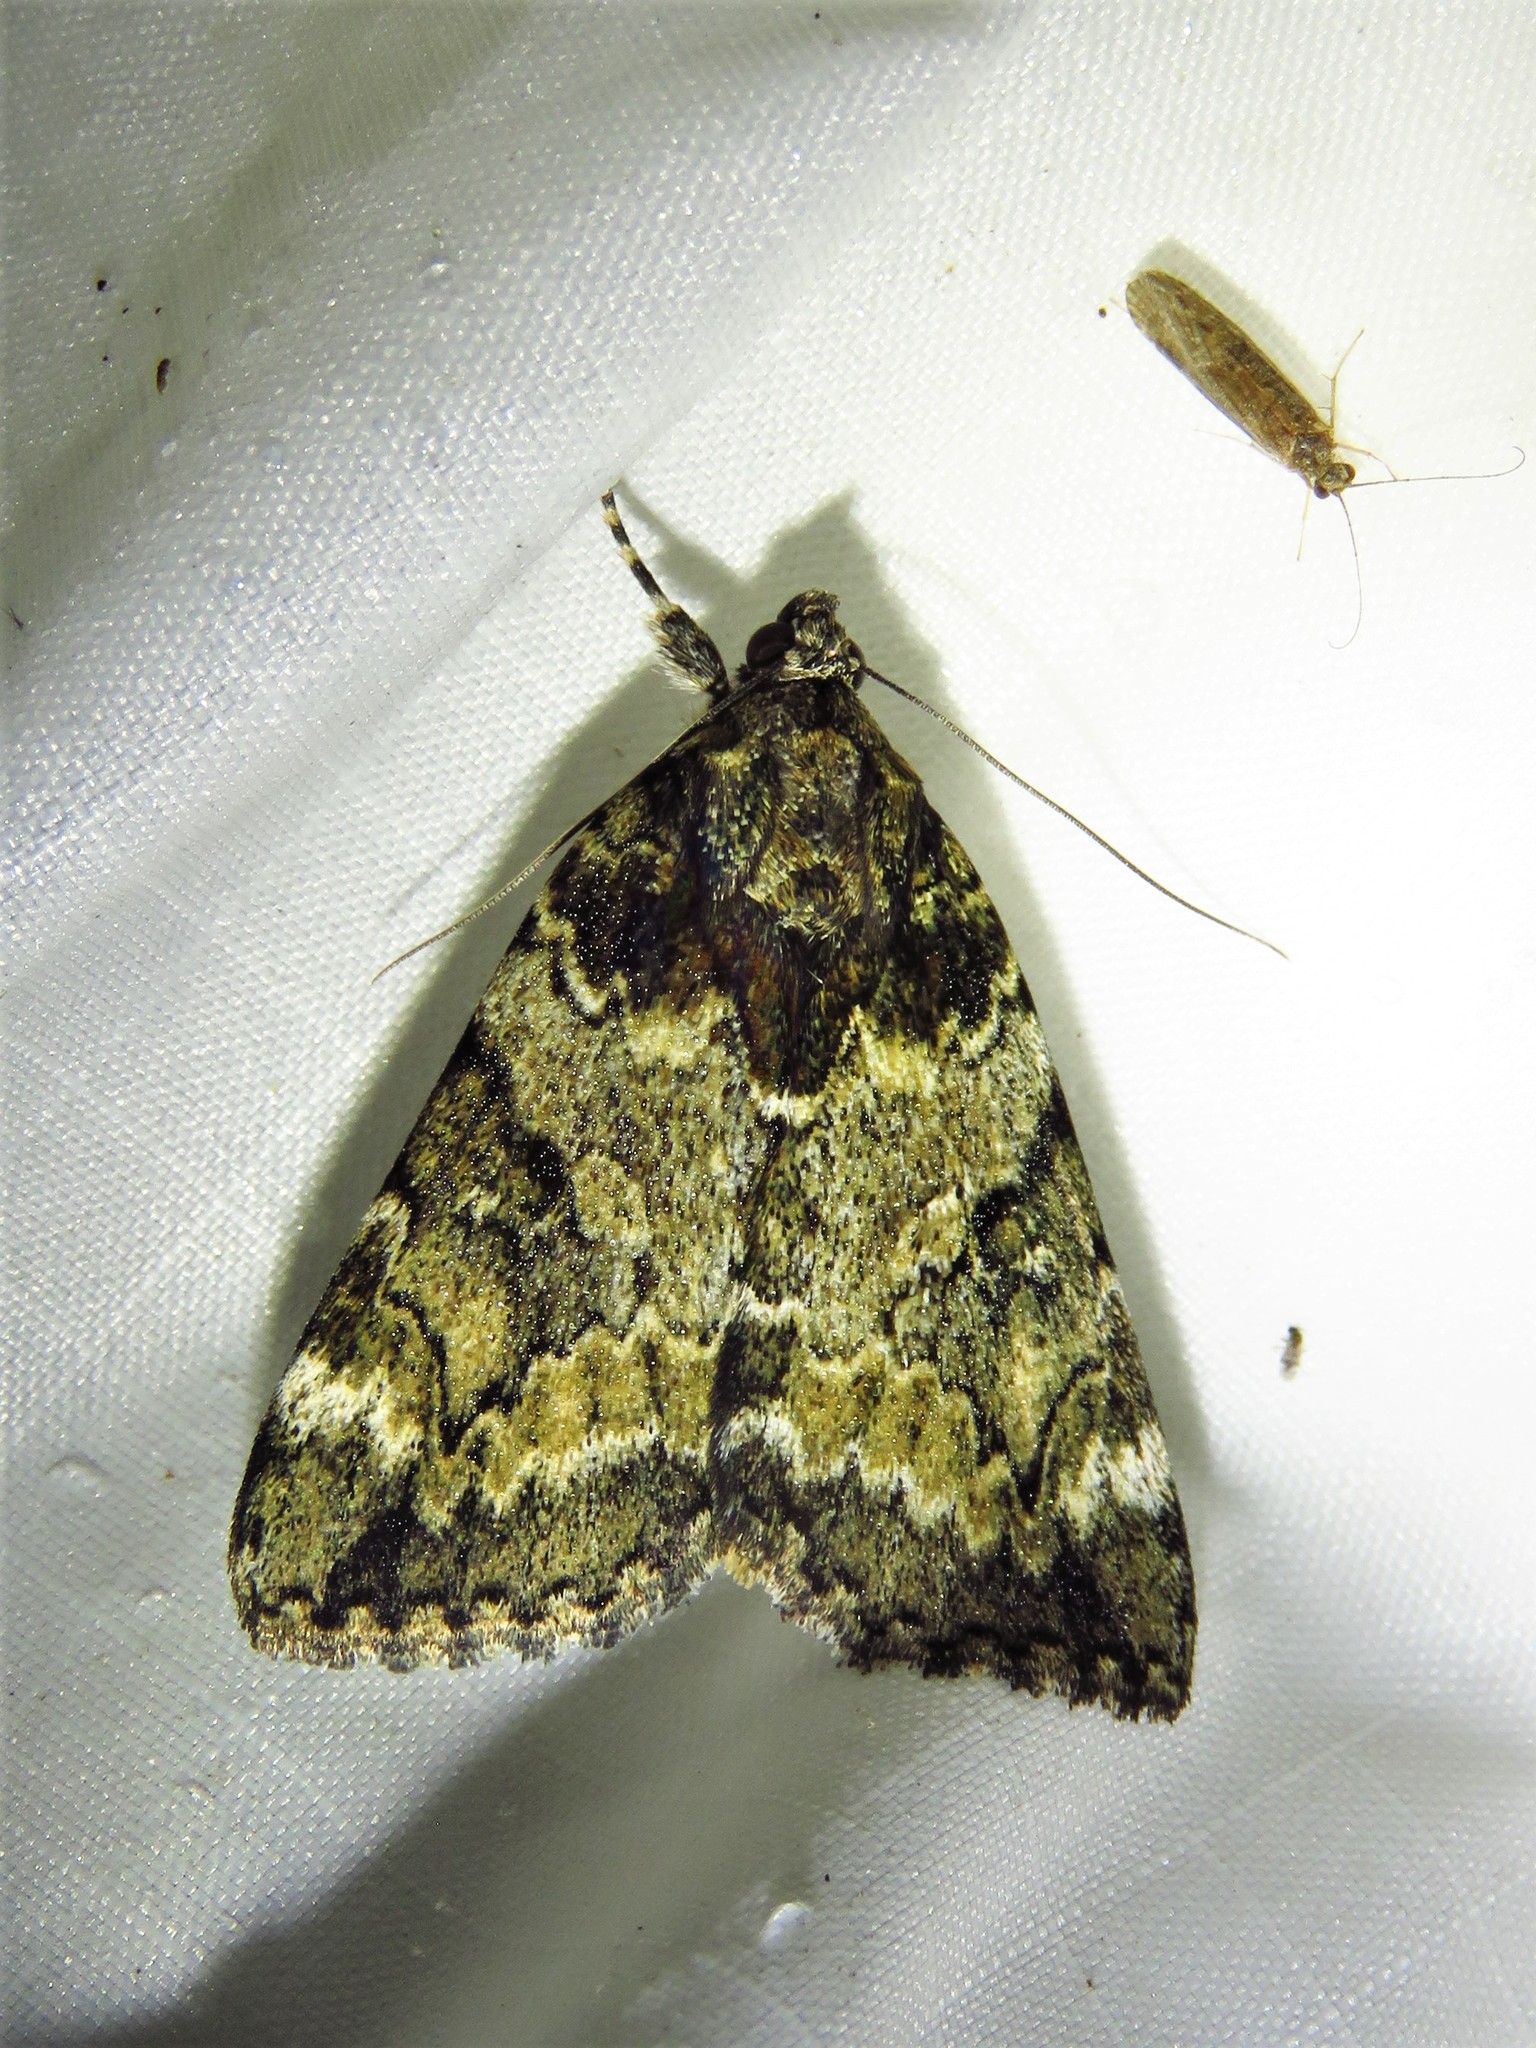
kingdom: Animalia
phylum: Arthropoda
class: Insecta
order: Lepidoptera
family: Erebidae
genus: Catocala
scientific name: Catocala micronympha
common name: Little nymph underwing
